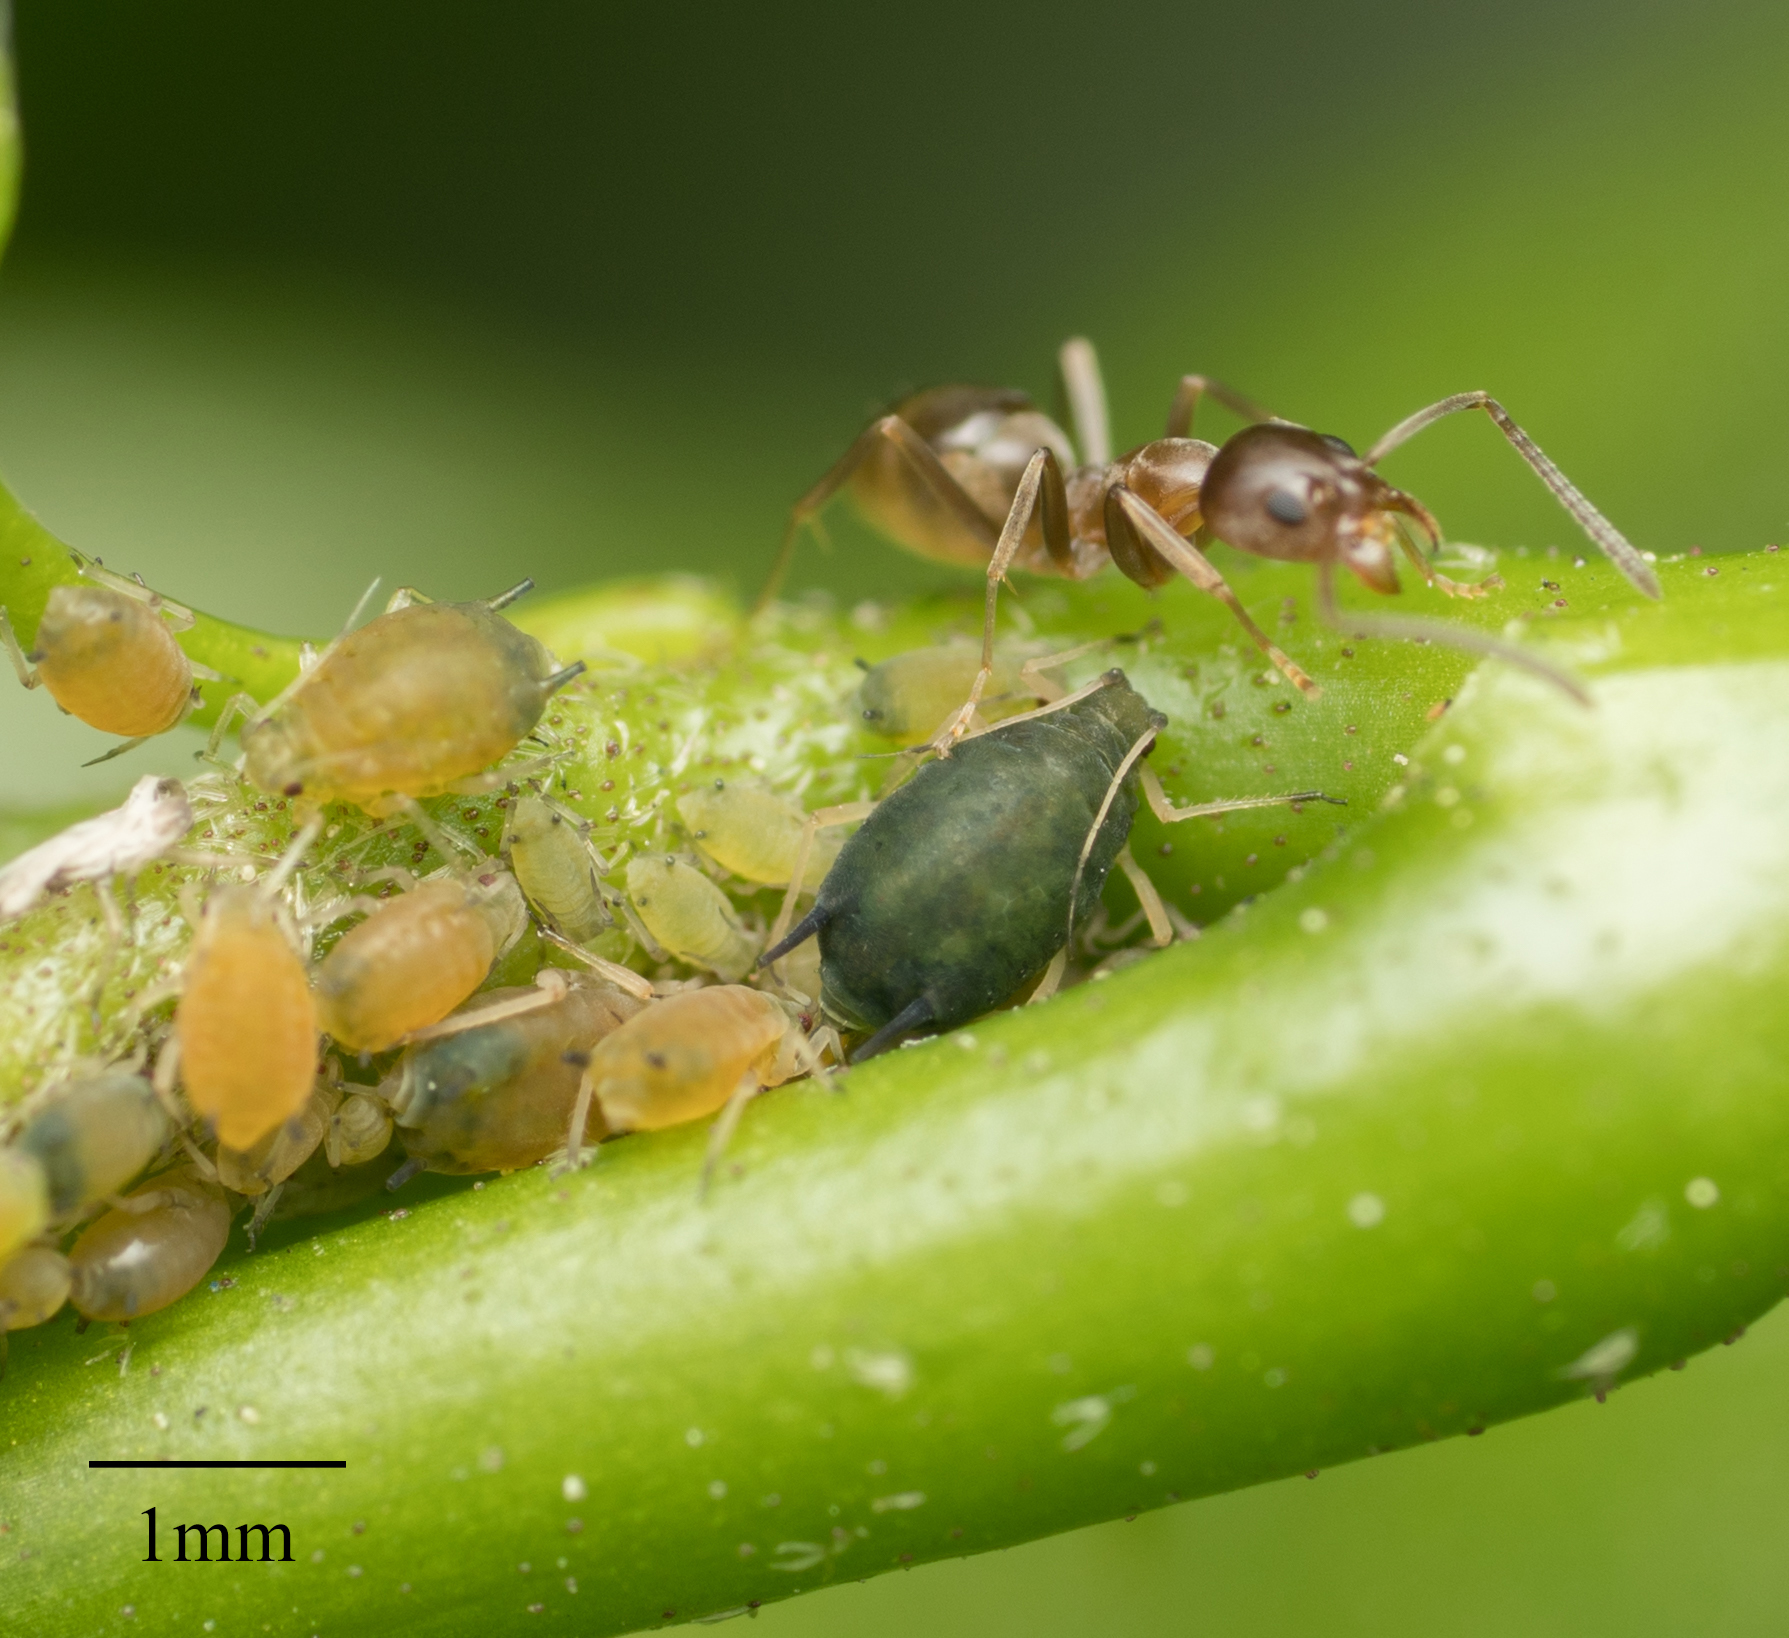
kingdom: Animalia
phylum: Arthropoda
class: Insecta
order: Hemiptera
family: Aphididae
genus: Aphis
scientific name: Aphis gossypii
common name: Melon aphid
